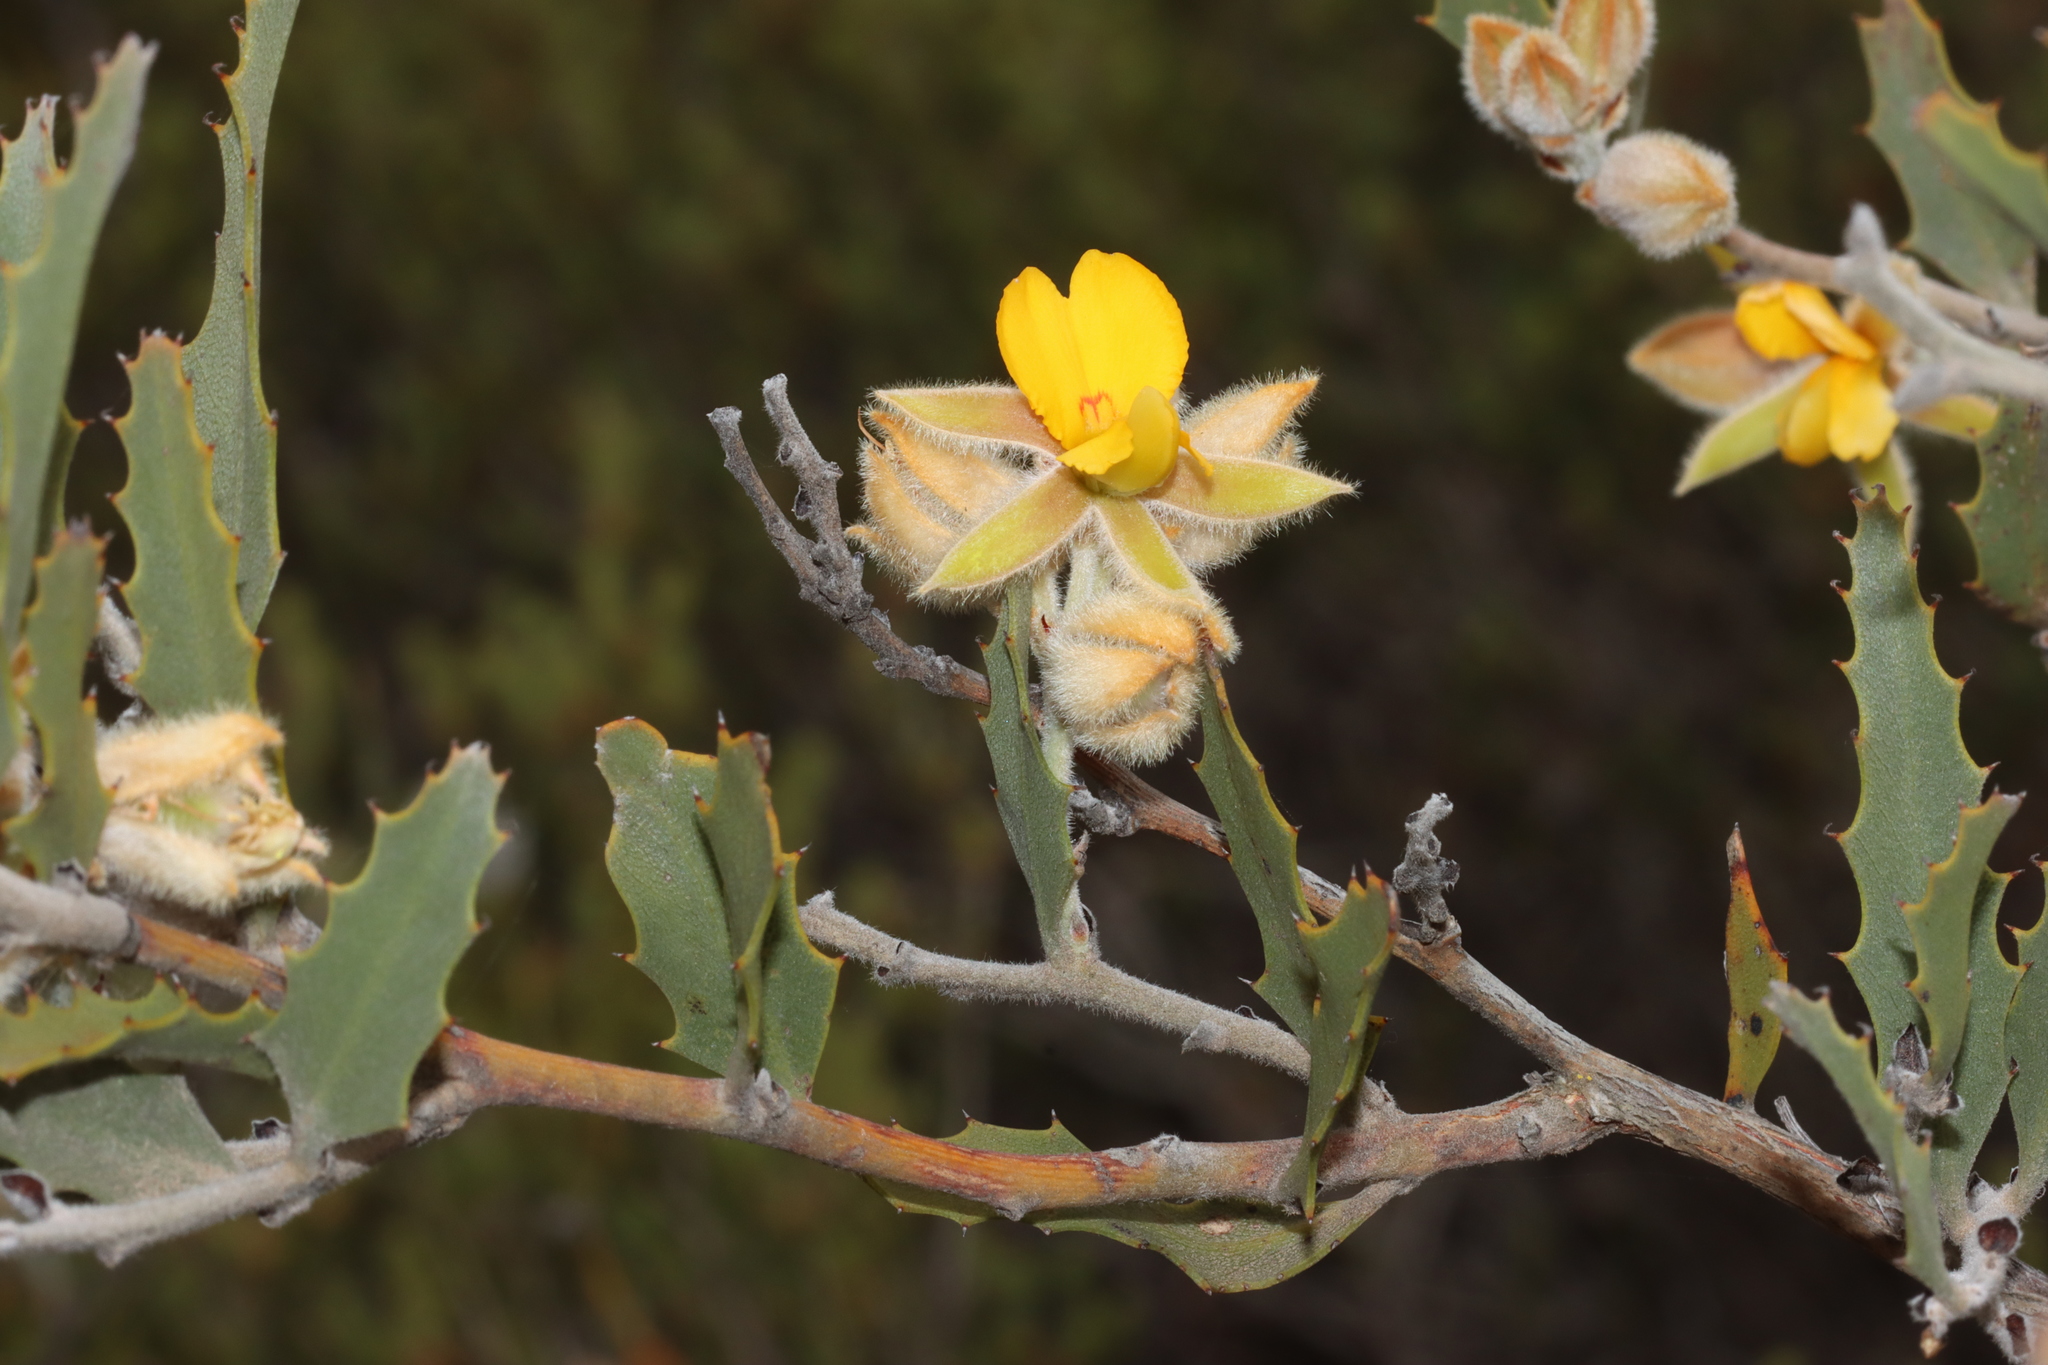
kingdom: Plantae
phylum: Tracheophyta
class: Magnoliopsida
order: Fabales
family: Fabaceae
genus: Jacksonia
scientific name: Jacksonia floribunda
